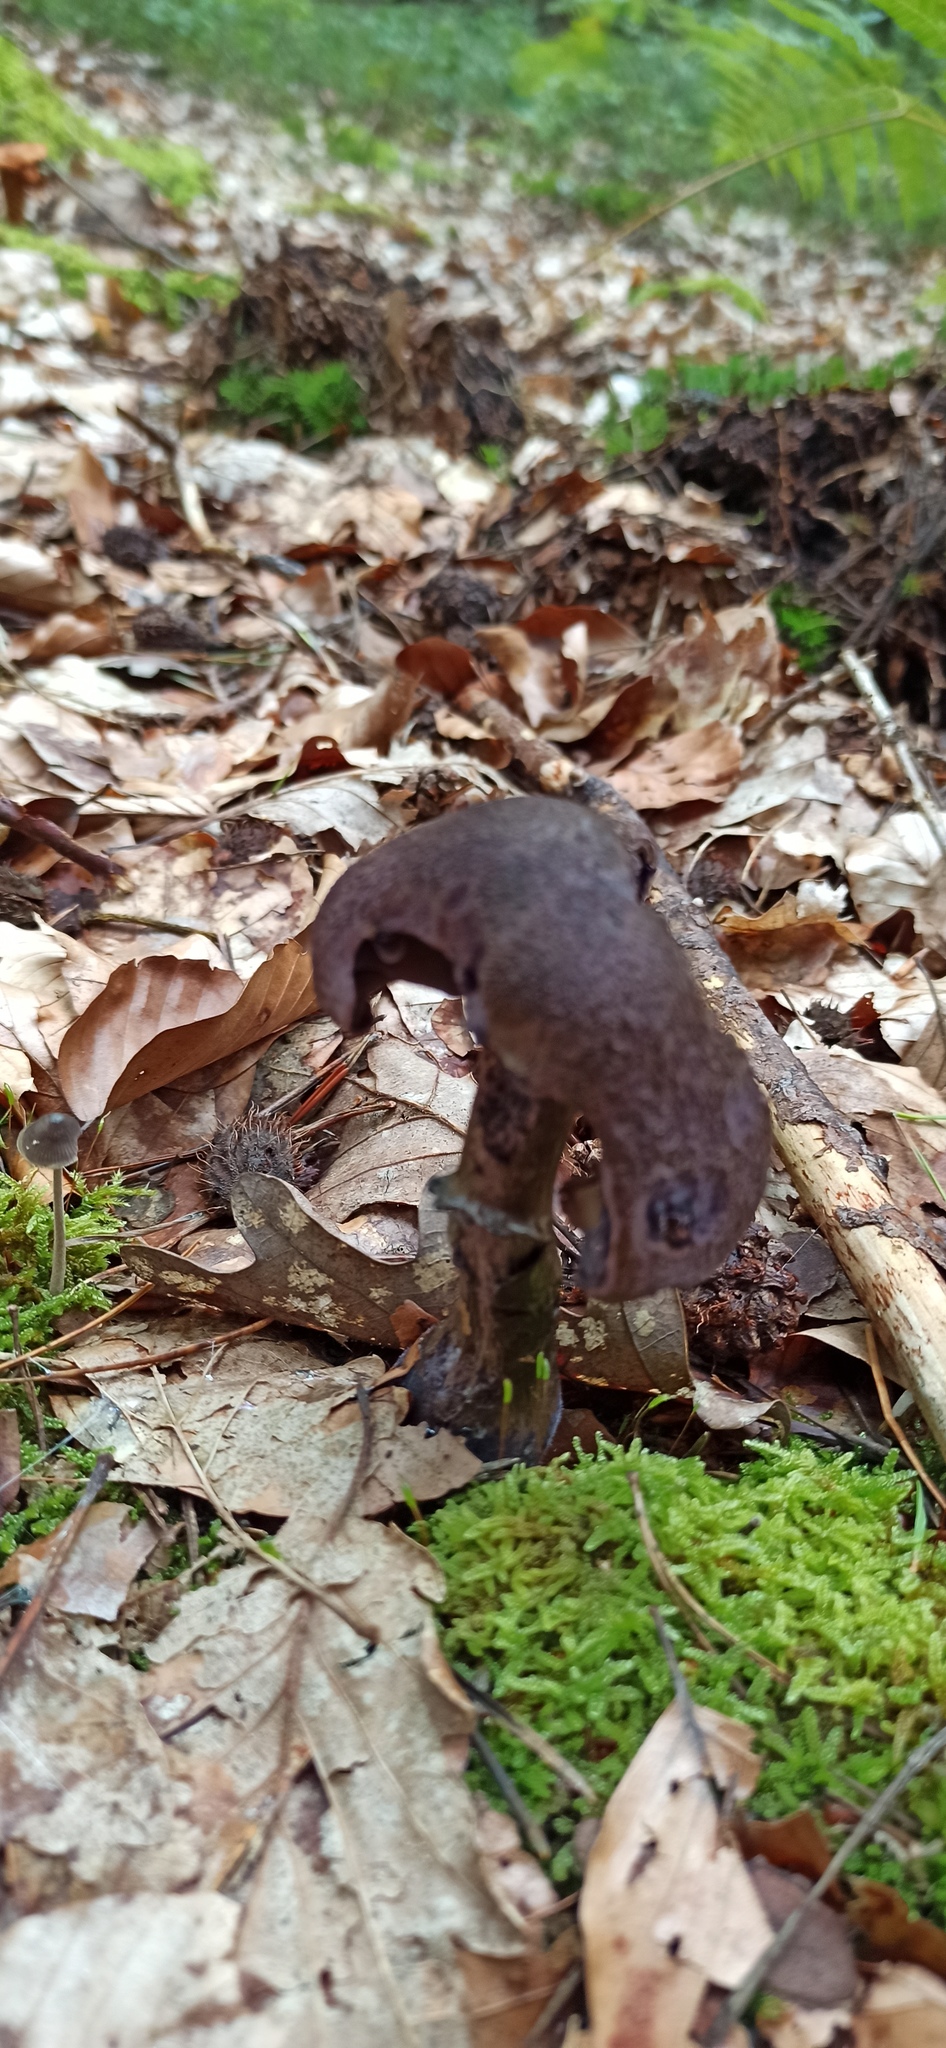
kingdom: Fungi
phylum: Basidiomycota
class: Agaricomycetes
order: Agaricales
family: Cortinariaceae
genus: Cortinarius
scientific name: Cortinarius violaceus
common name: Violet webcap
